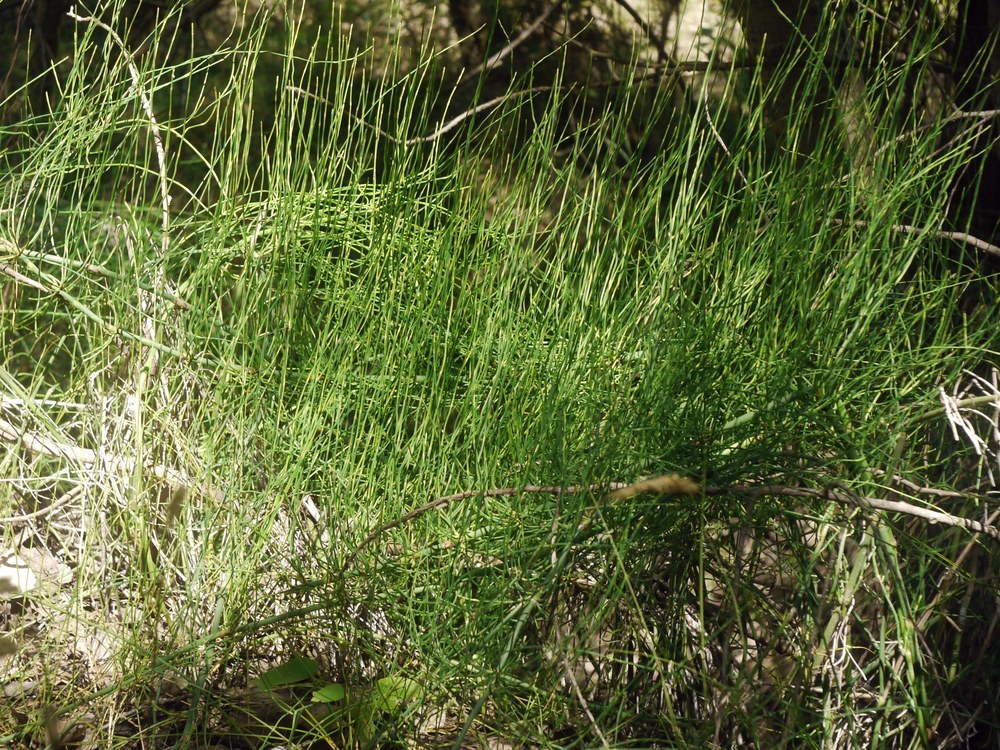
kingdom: Plantae
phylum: Tracheophyta
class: Polypodiopsida
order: Equisetales
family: Equisetaceae
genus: Equisetum
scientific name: Equisetum ramosissimum
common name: Branched horsetail
